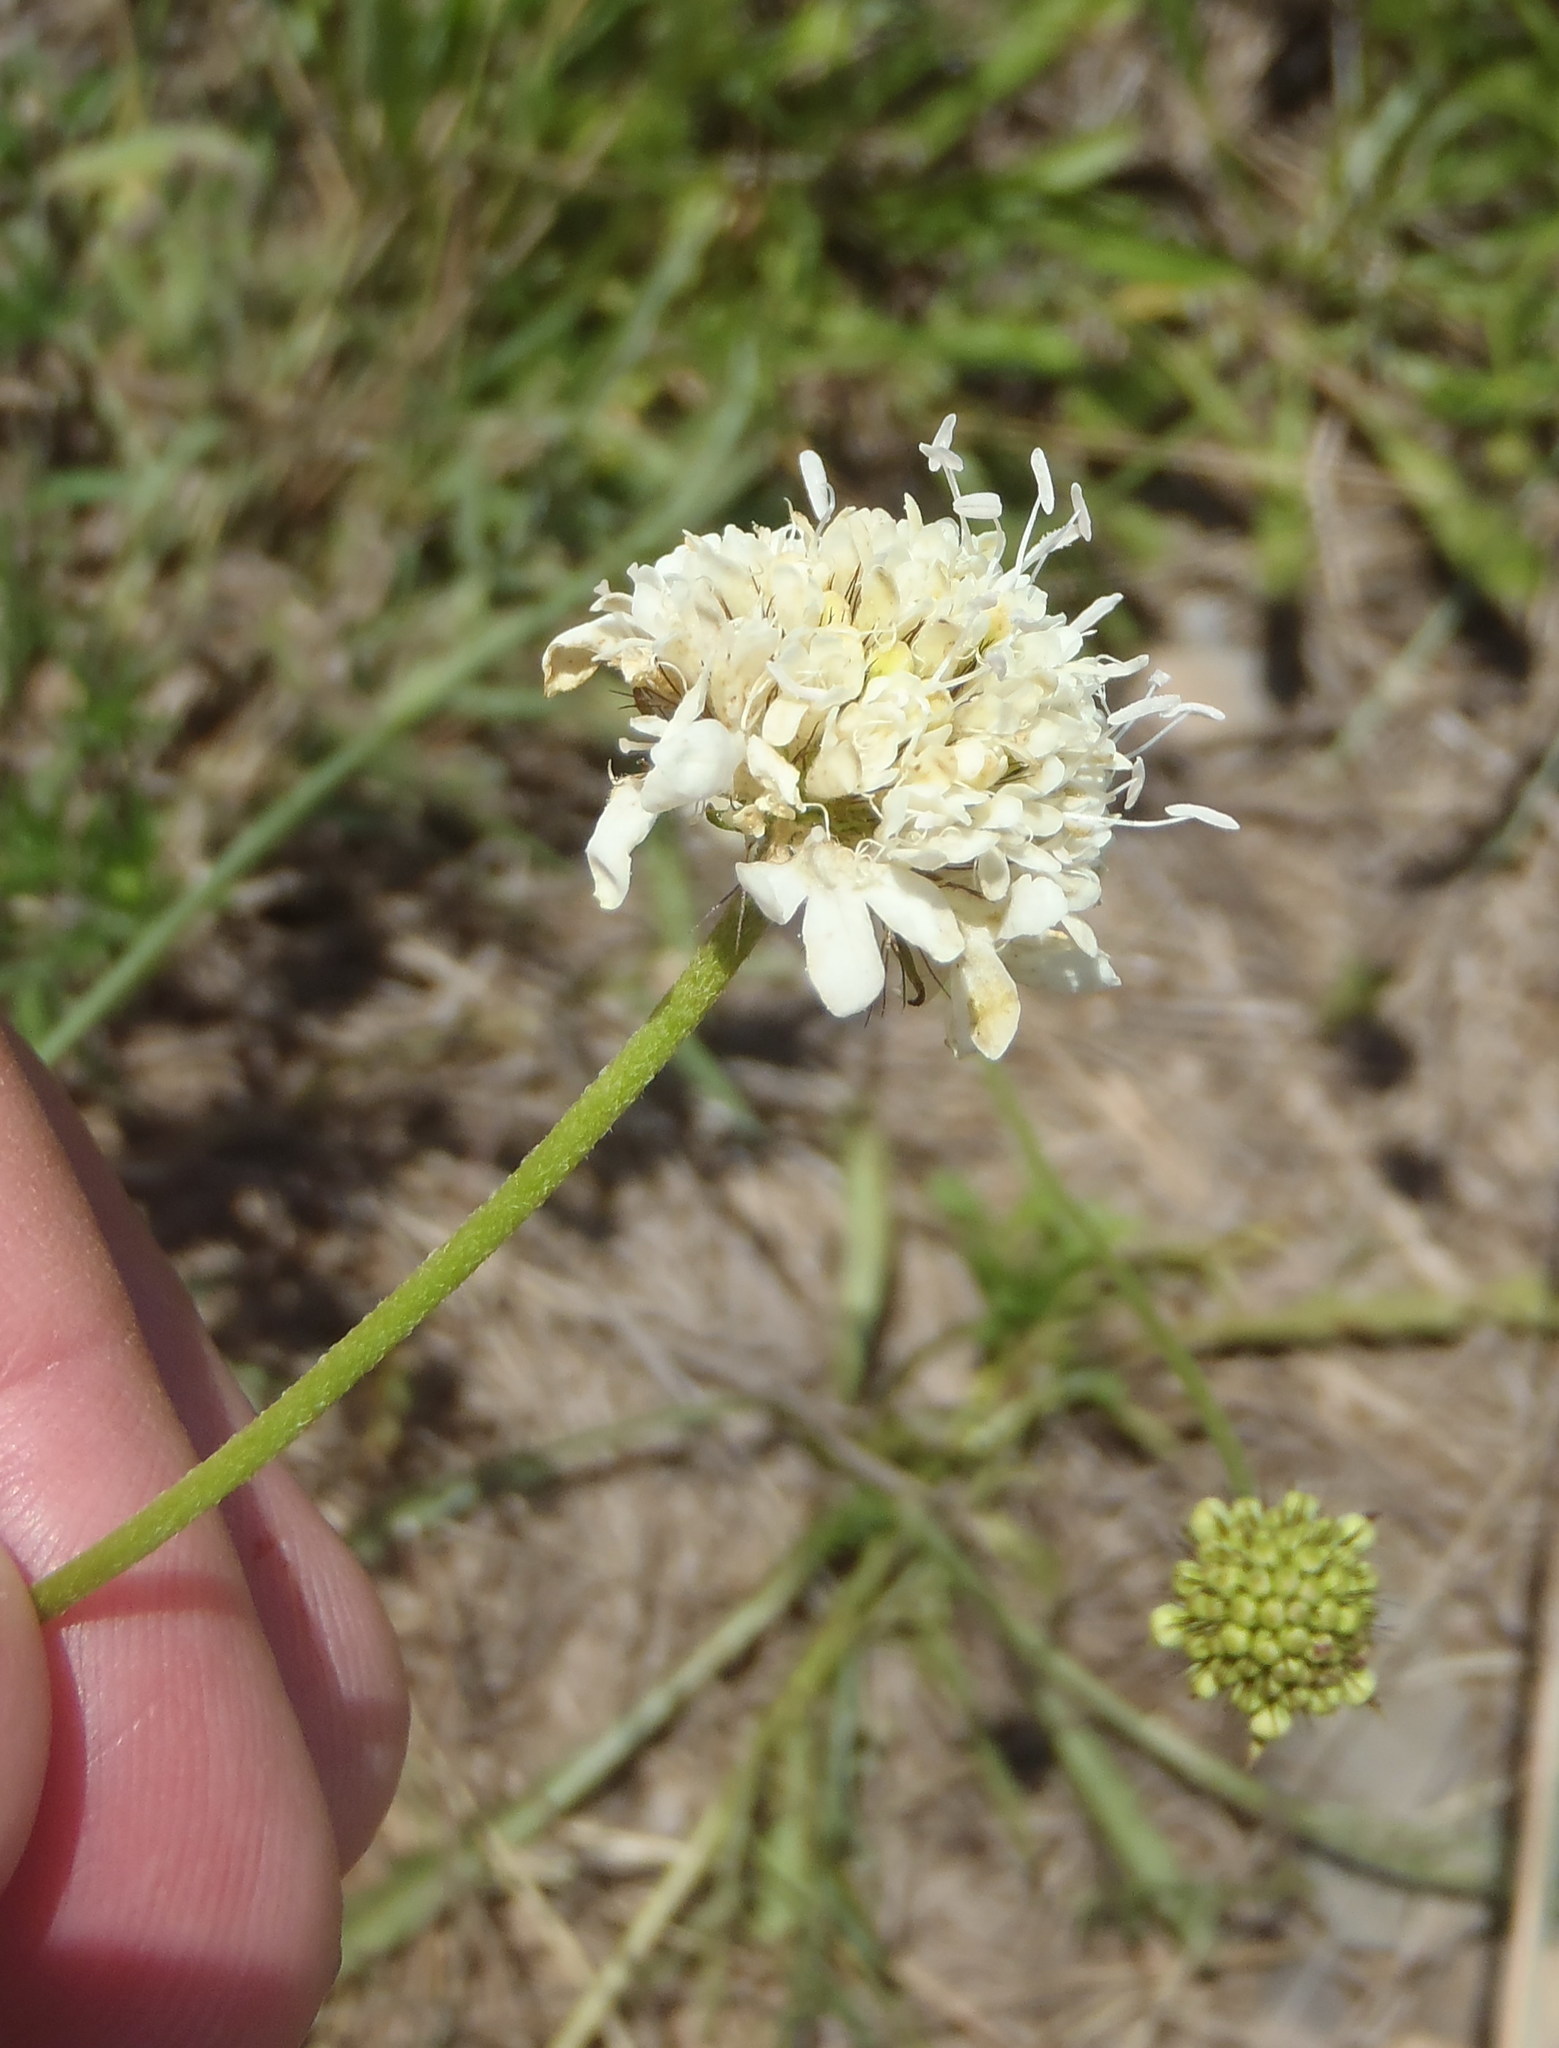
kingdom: Plantae
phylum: Tracheophyta
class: Magnoliopsida
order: Dipsacales
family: Caprifoliaceae
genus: Scabiosa
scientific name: Scabiosa columbaria
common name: Small scabious
